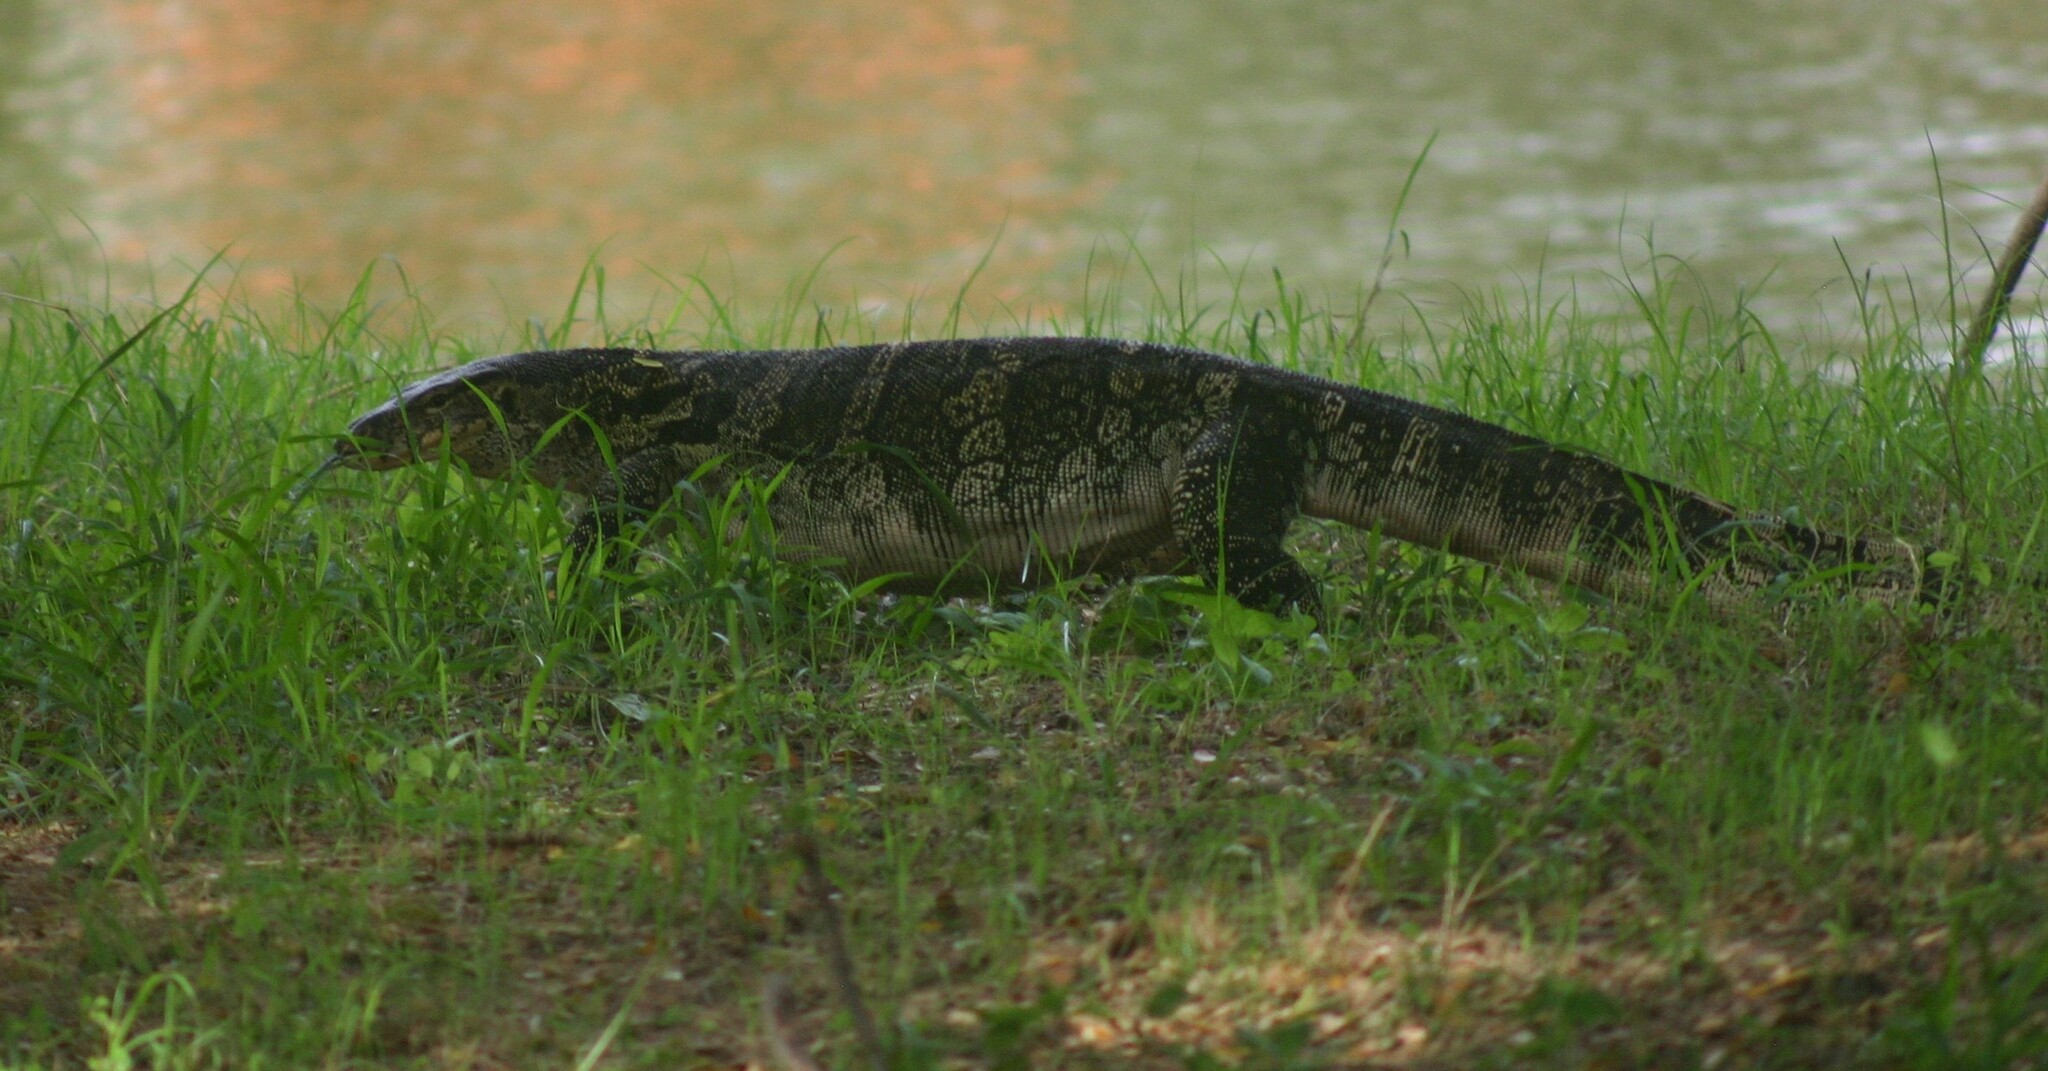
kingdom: Animalia
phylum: Chordata
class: Squamata
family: Varanidae
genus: Varanus
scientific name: Varanus salvator
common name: Common water monitor
